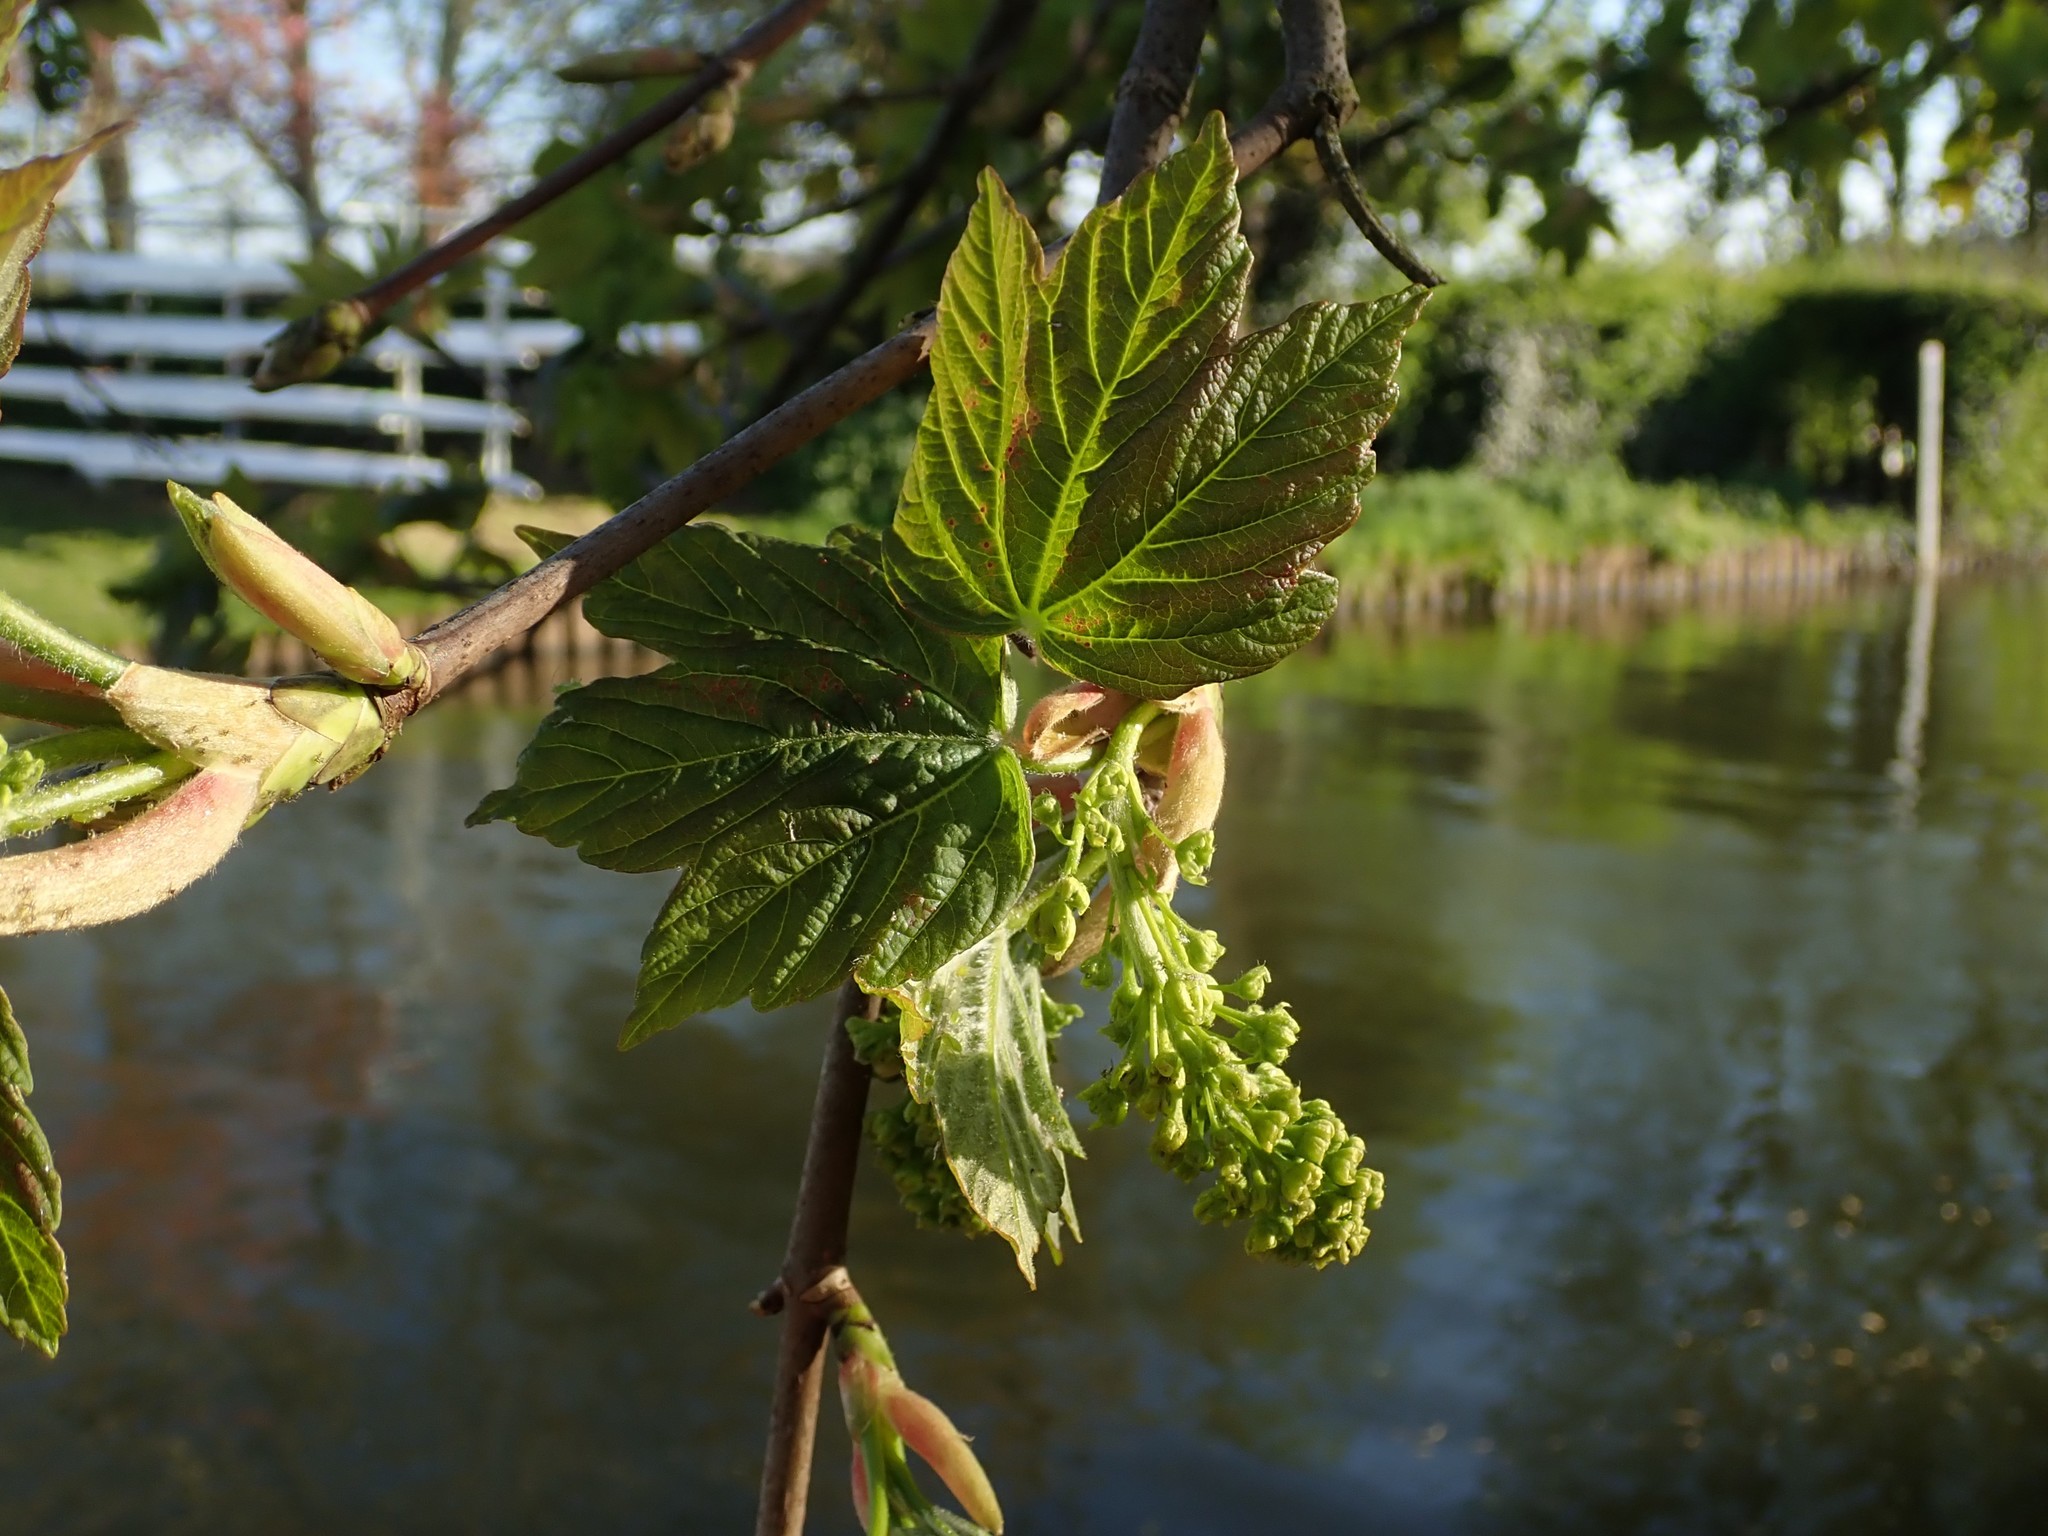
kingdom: Plantae
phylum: Tracheophyta
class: Magnoliopsida
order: Sapindales
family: Sapindaceae
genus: Acer
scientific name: Acer pseudoplatanus
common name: Sycamore
